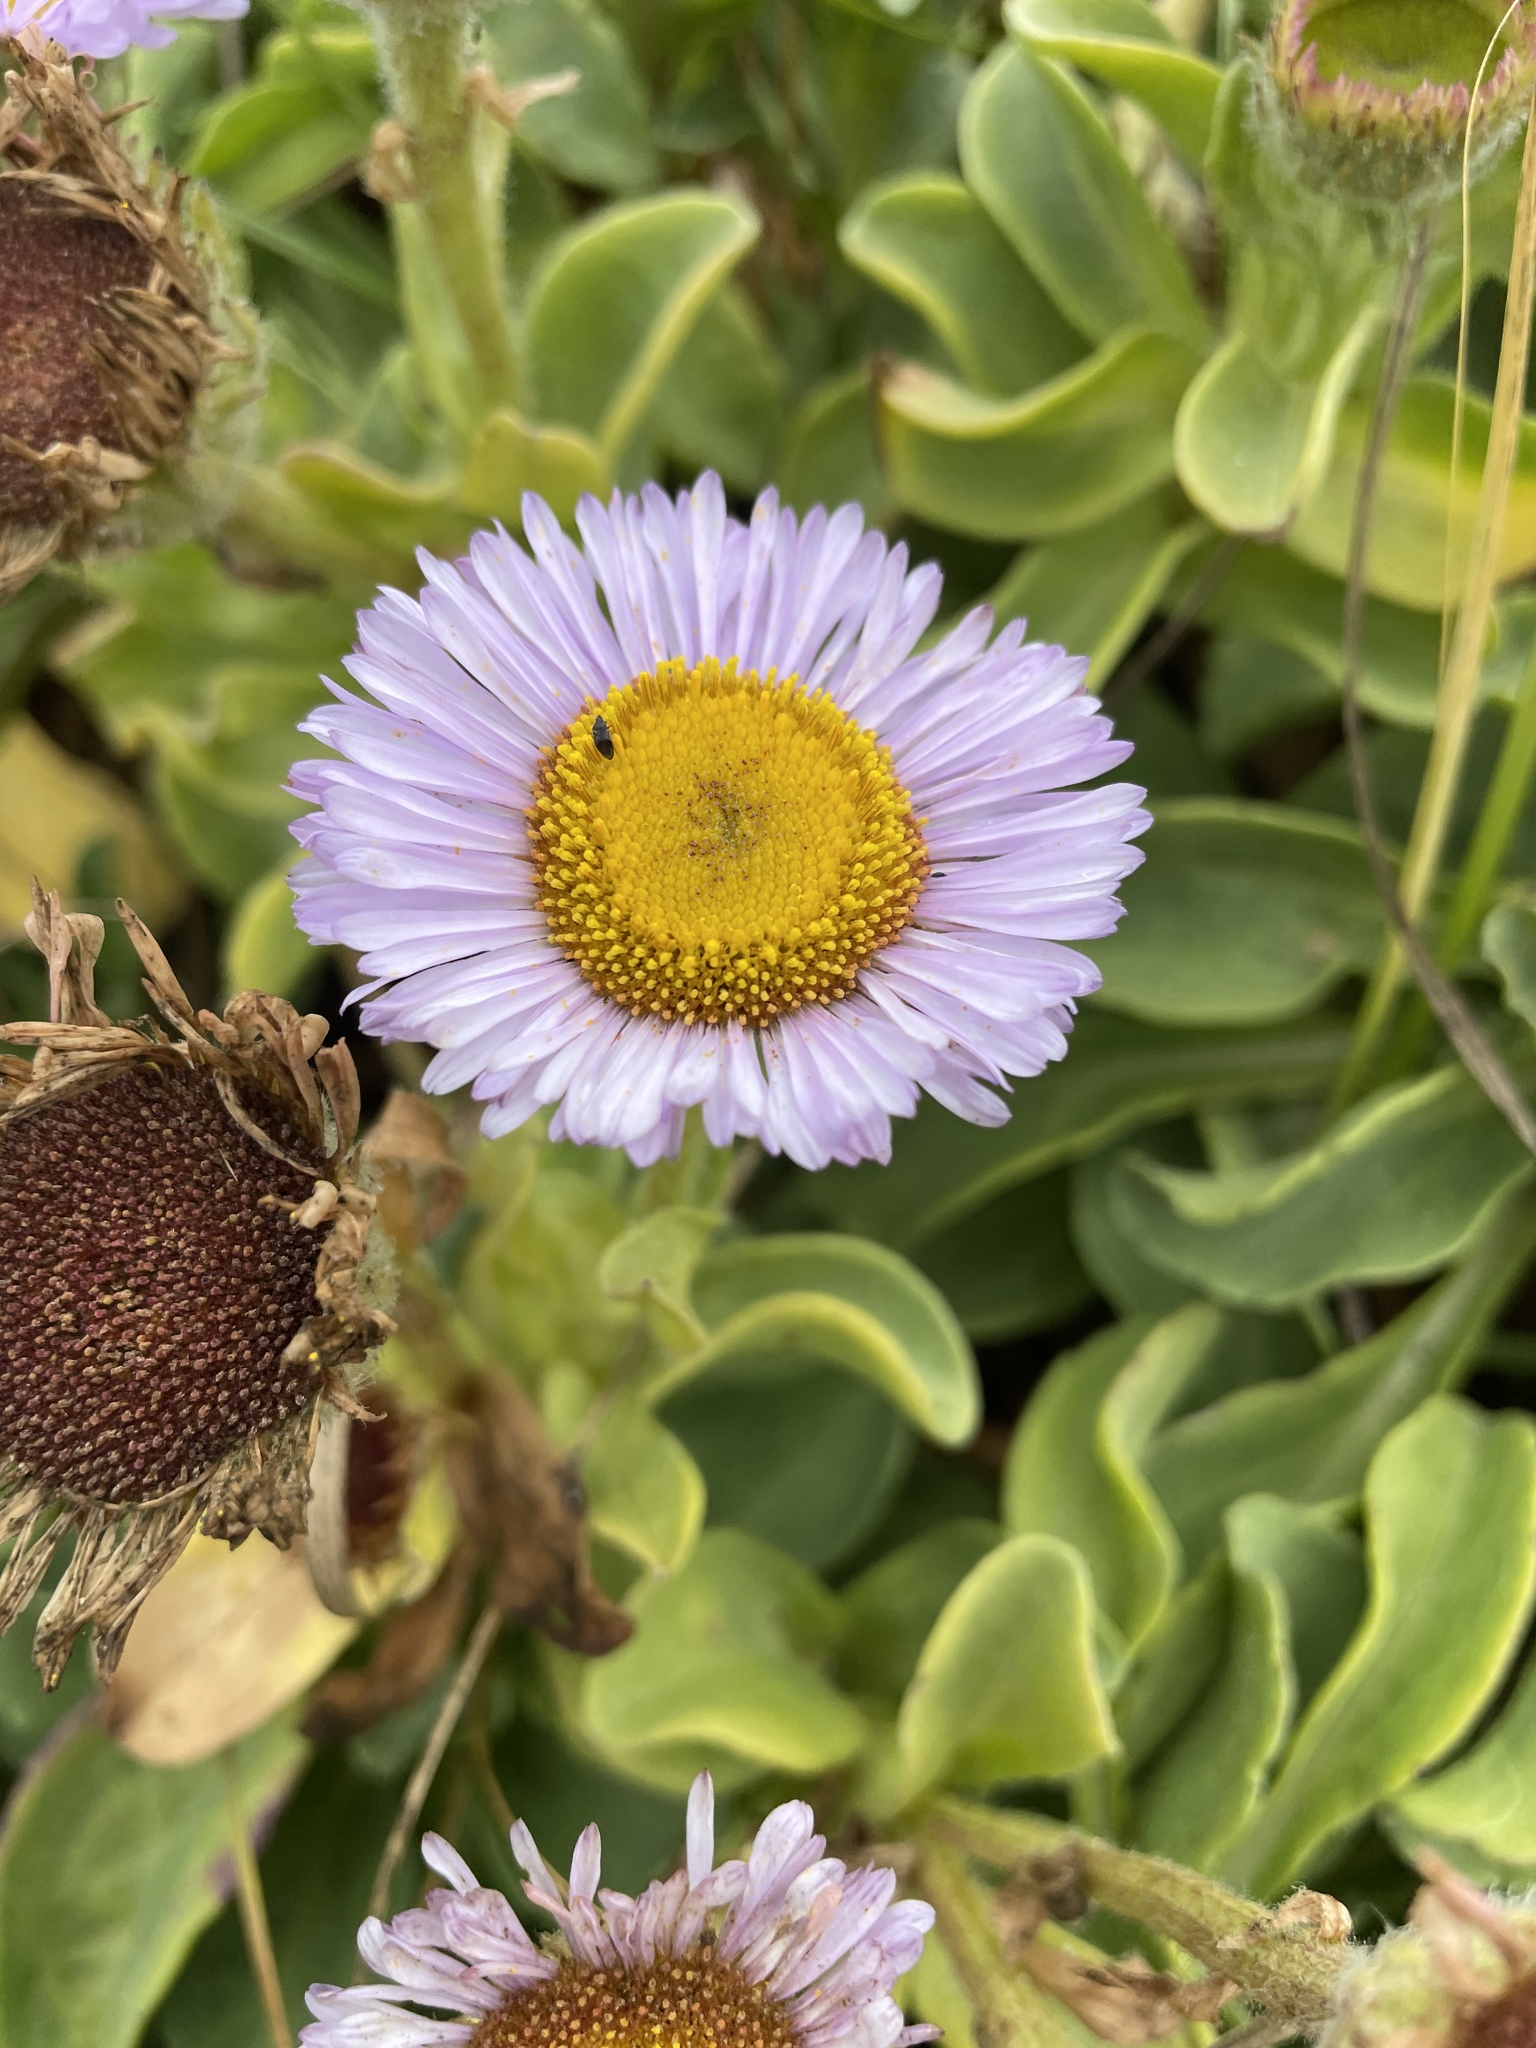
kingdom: Plantae
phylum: Tracheophyta
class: Magnoliopsida
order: Asterales
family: Asteraceae
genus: Erigeron
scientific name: Erigeron glaucus
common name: Seaside daisy
